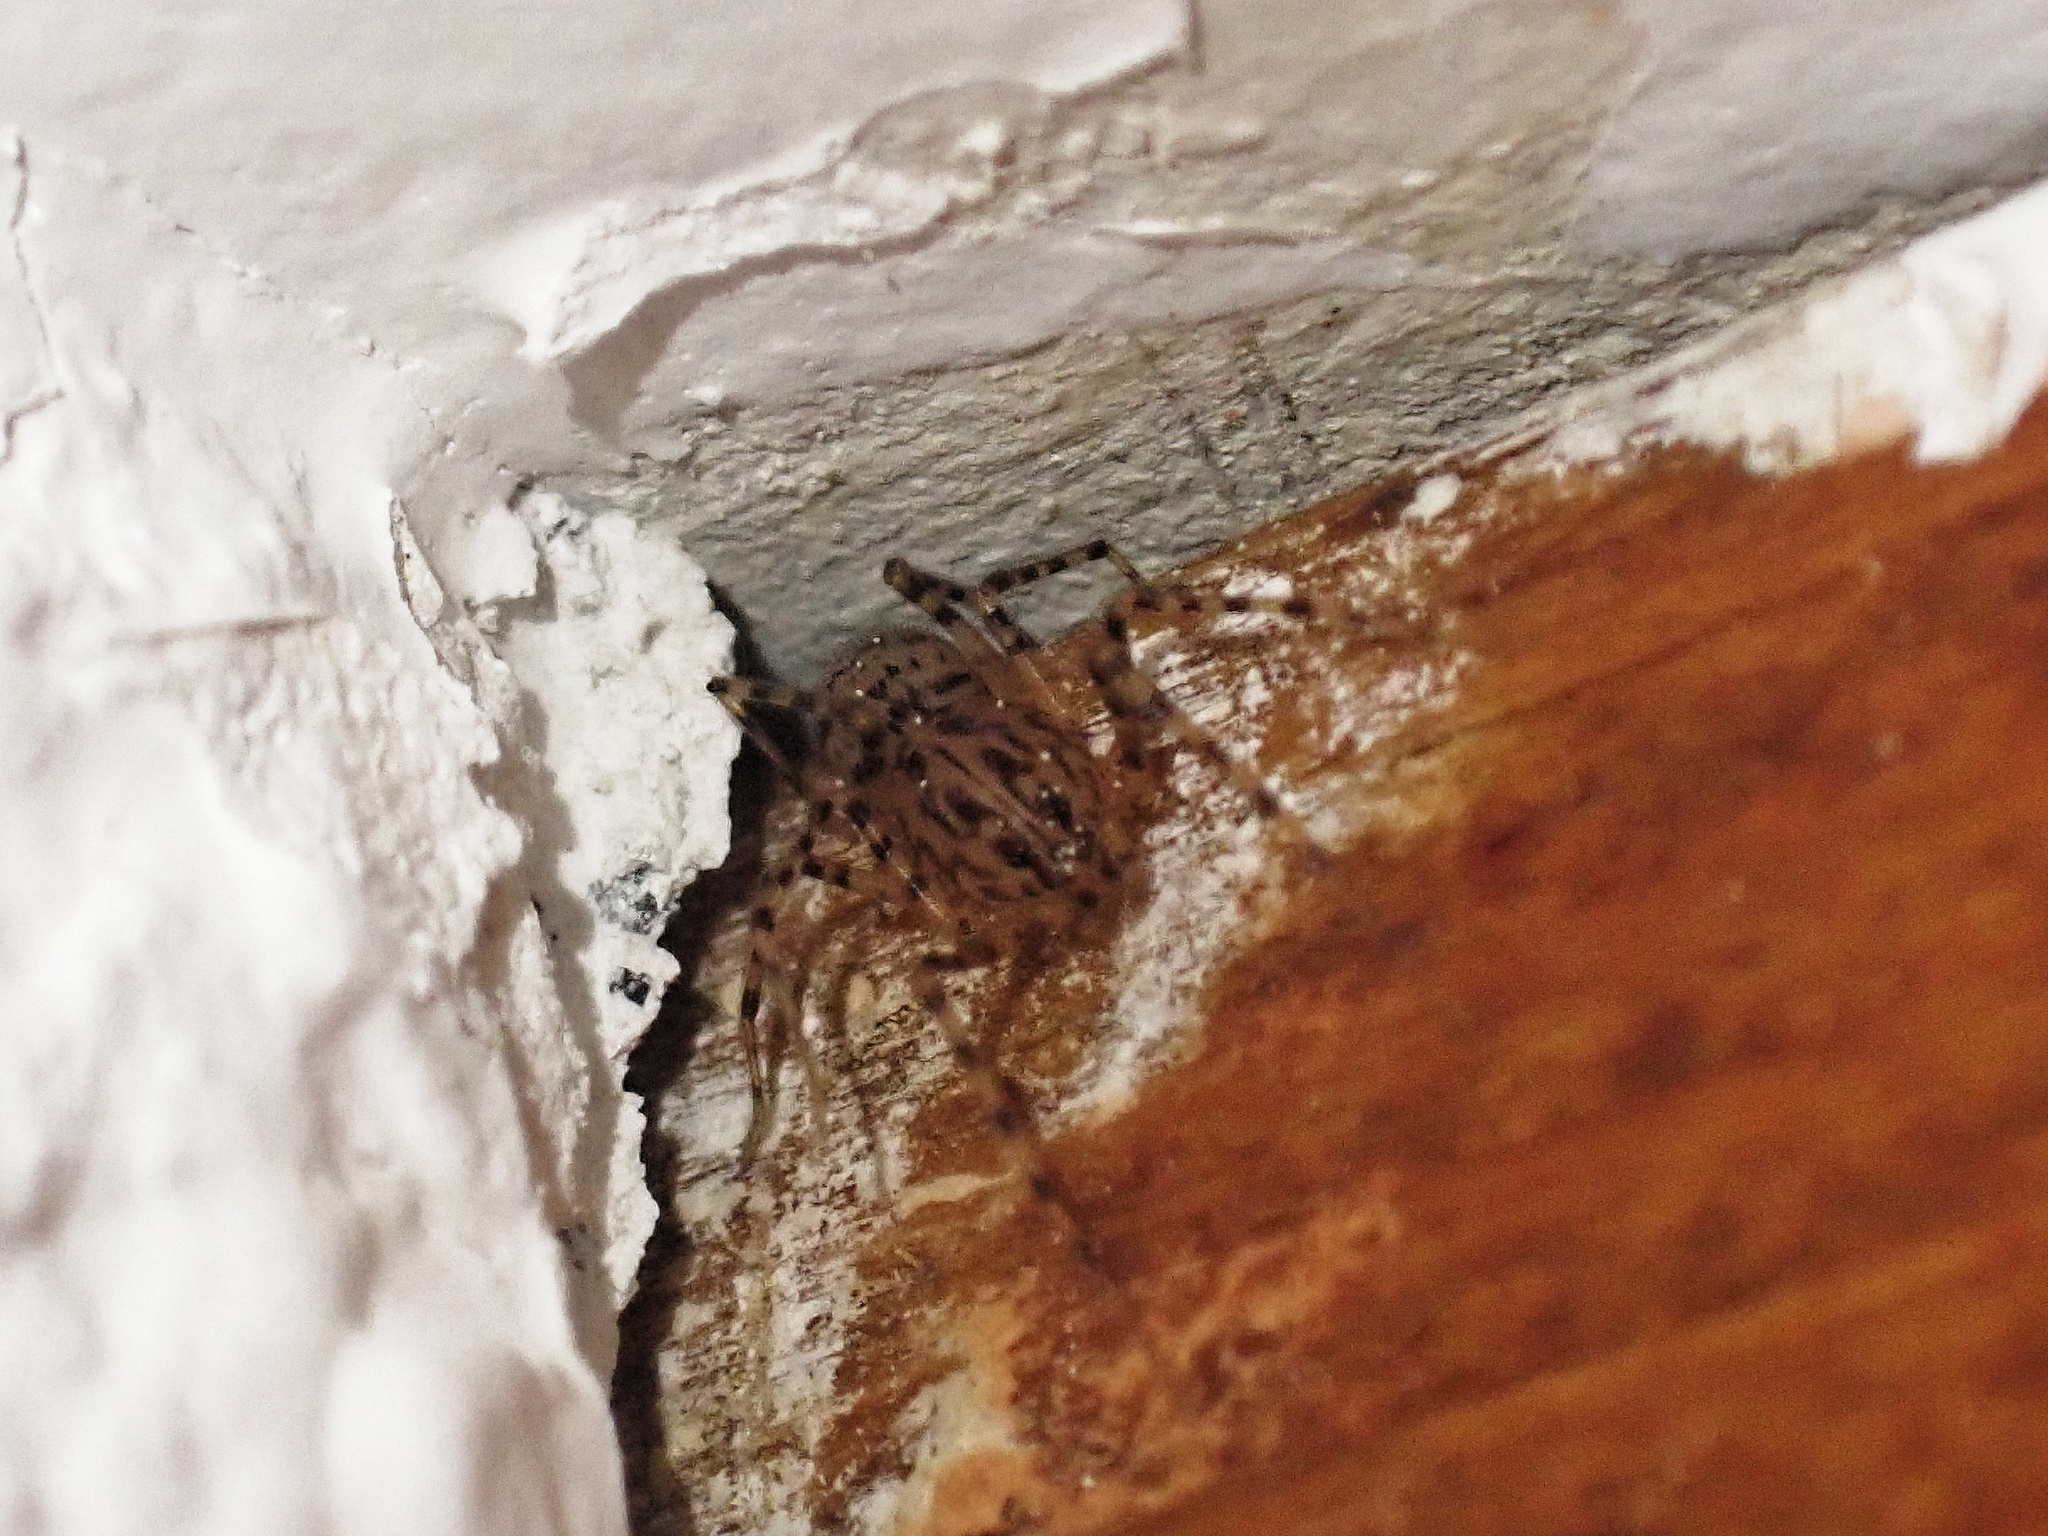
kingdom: Animalia
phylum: Arthropoda
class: Arachnida
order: Araneae
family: Scytodidae
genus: Scytodes
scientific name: Scytodes thoracica
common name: Spitting spider
